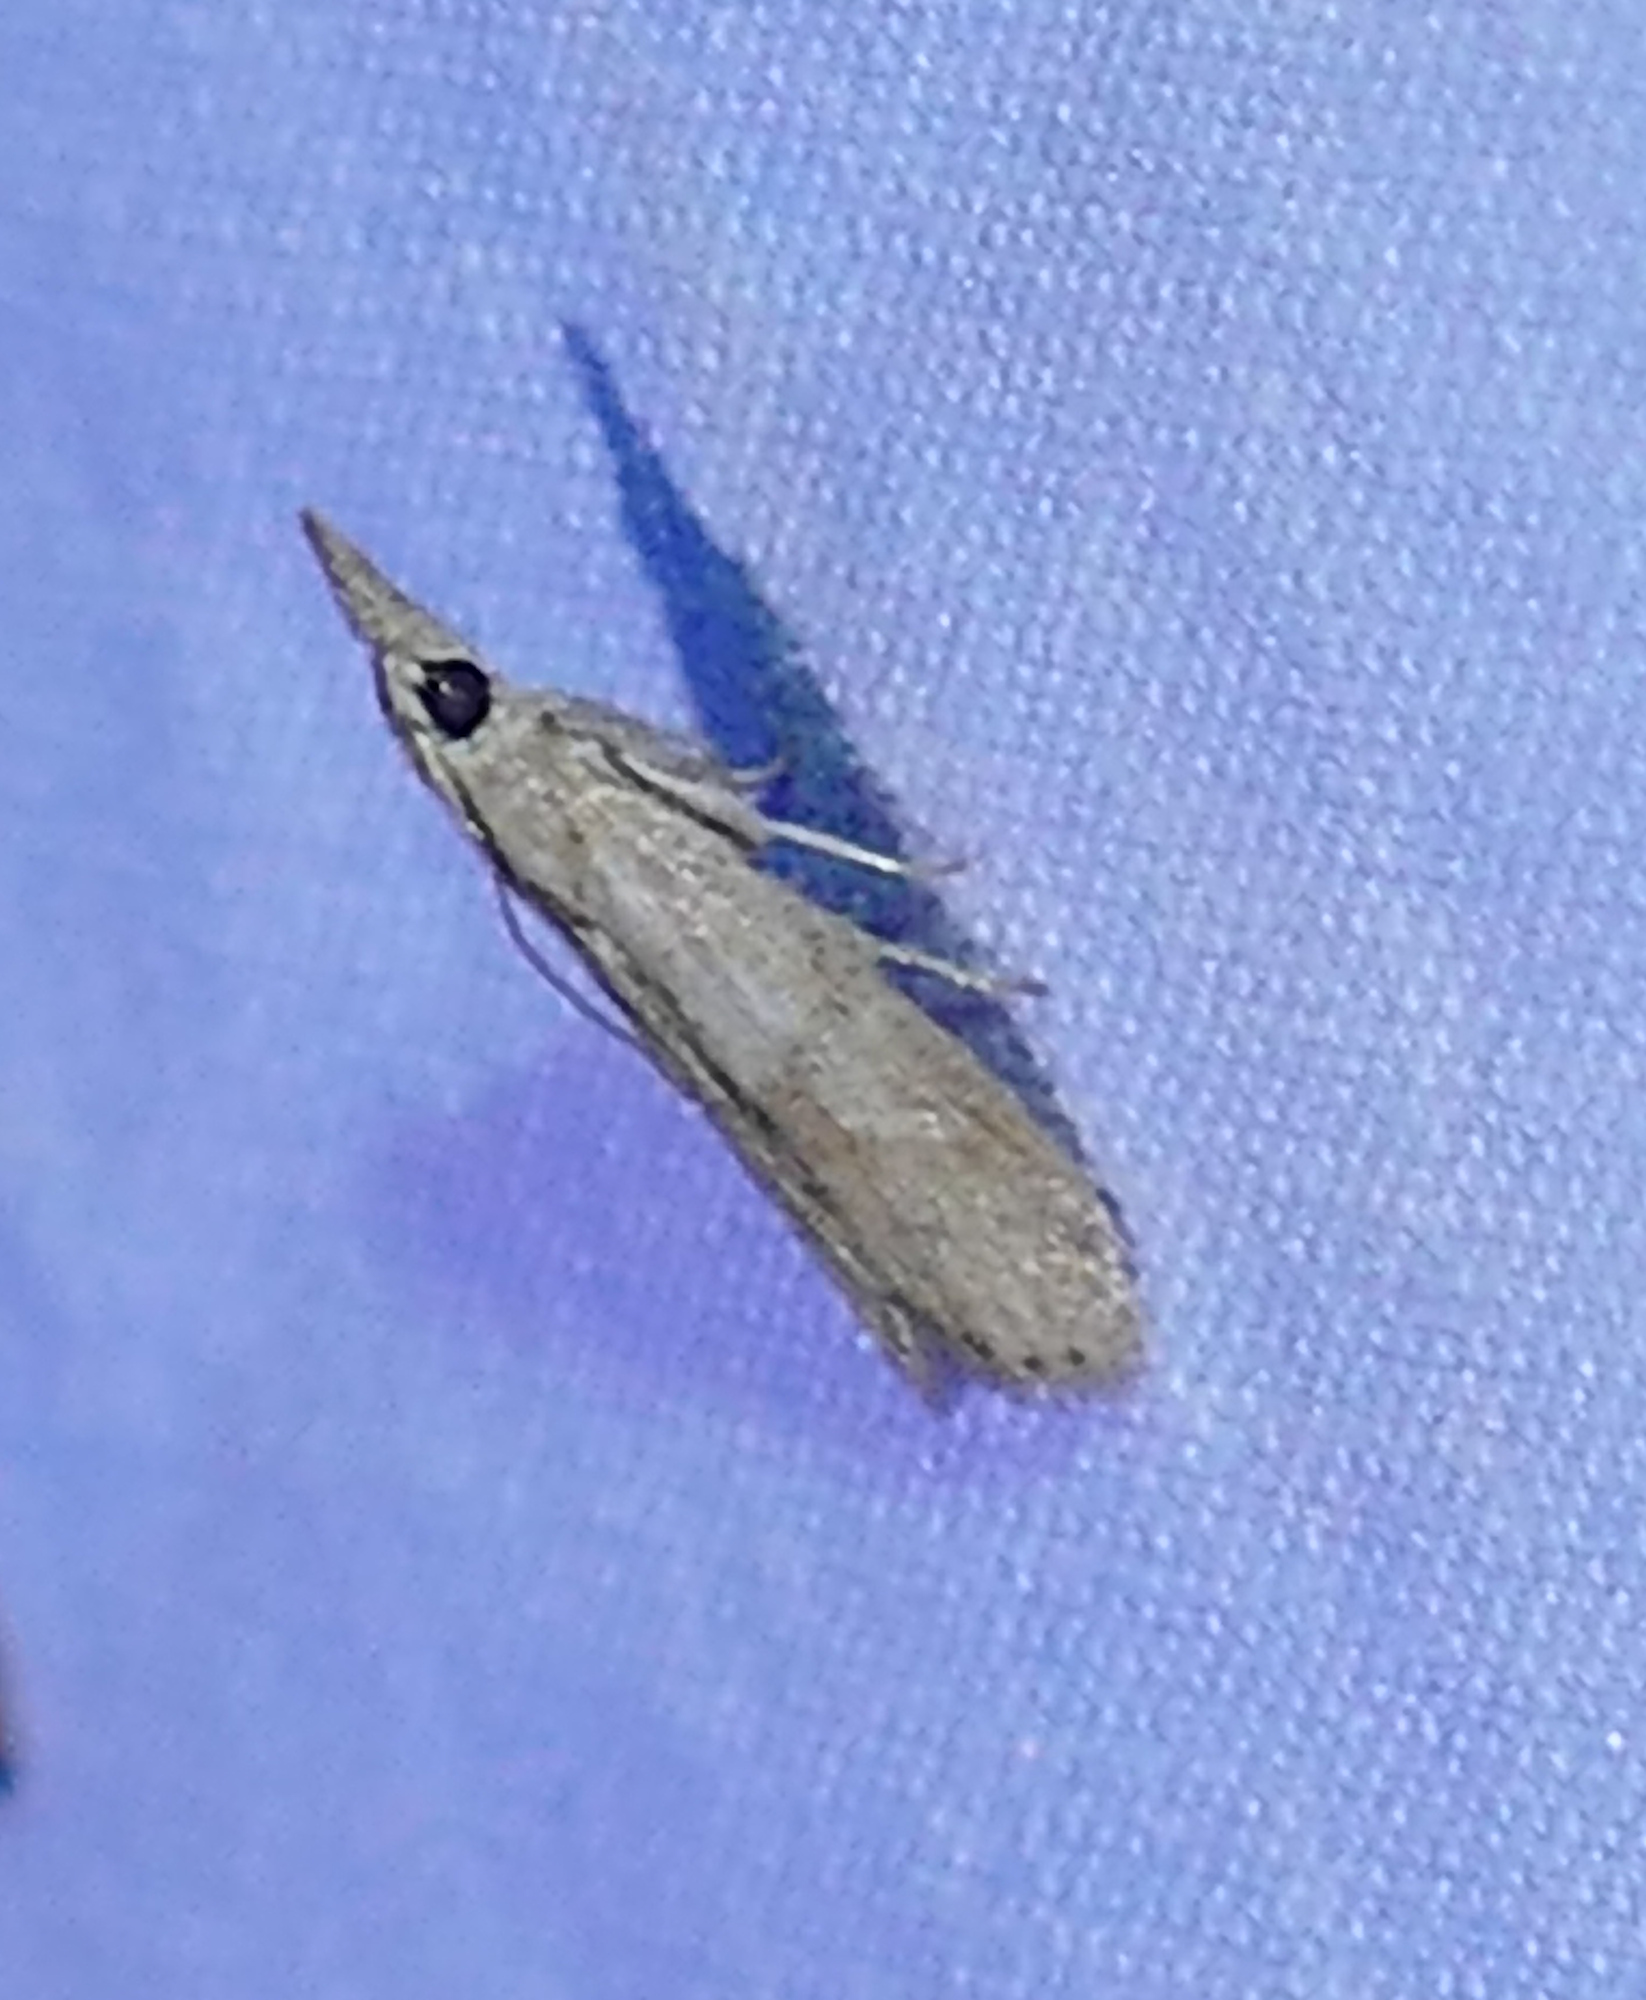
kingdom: Animalia
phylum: Arthropoda
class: Insecta
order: Lepidoptera
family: Pyralidae
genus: Macrorrhinia
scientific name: Macrorrhinia endonephele
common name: Alligator weed stemborer moth
